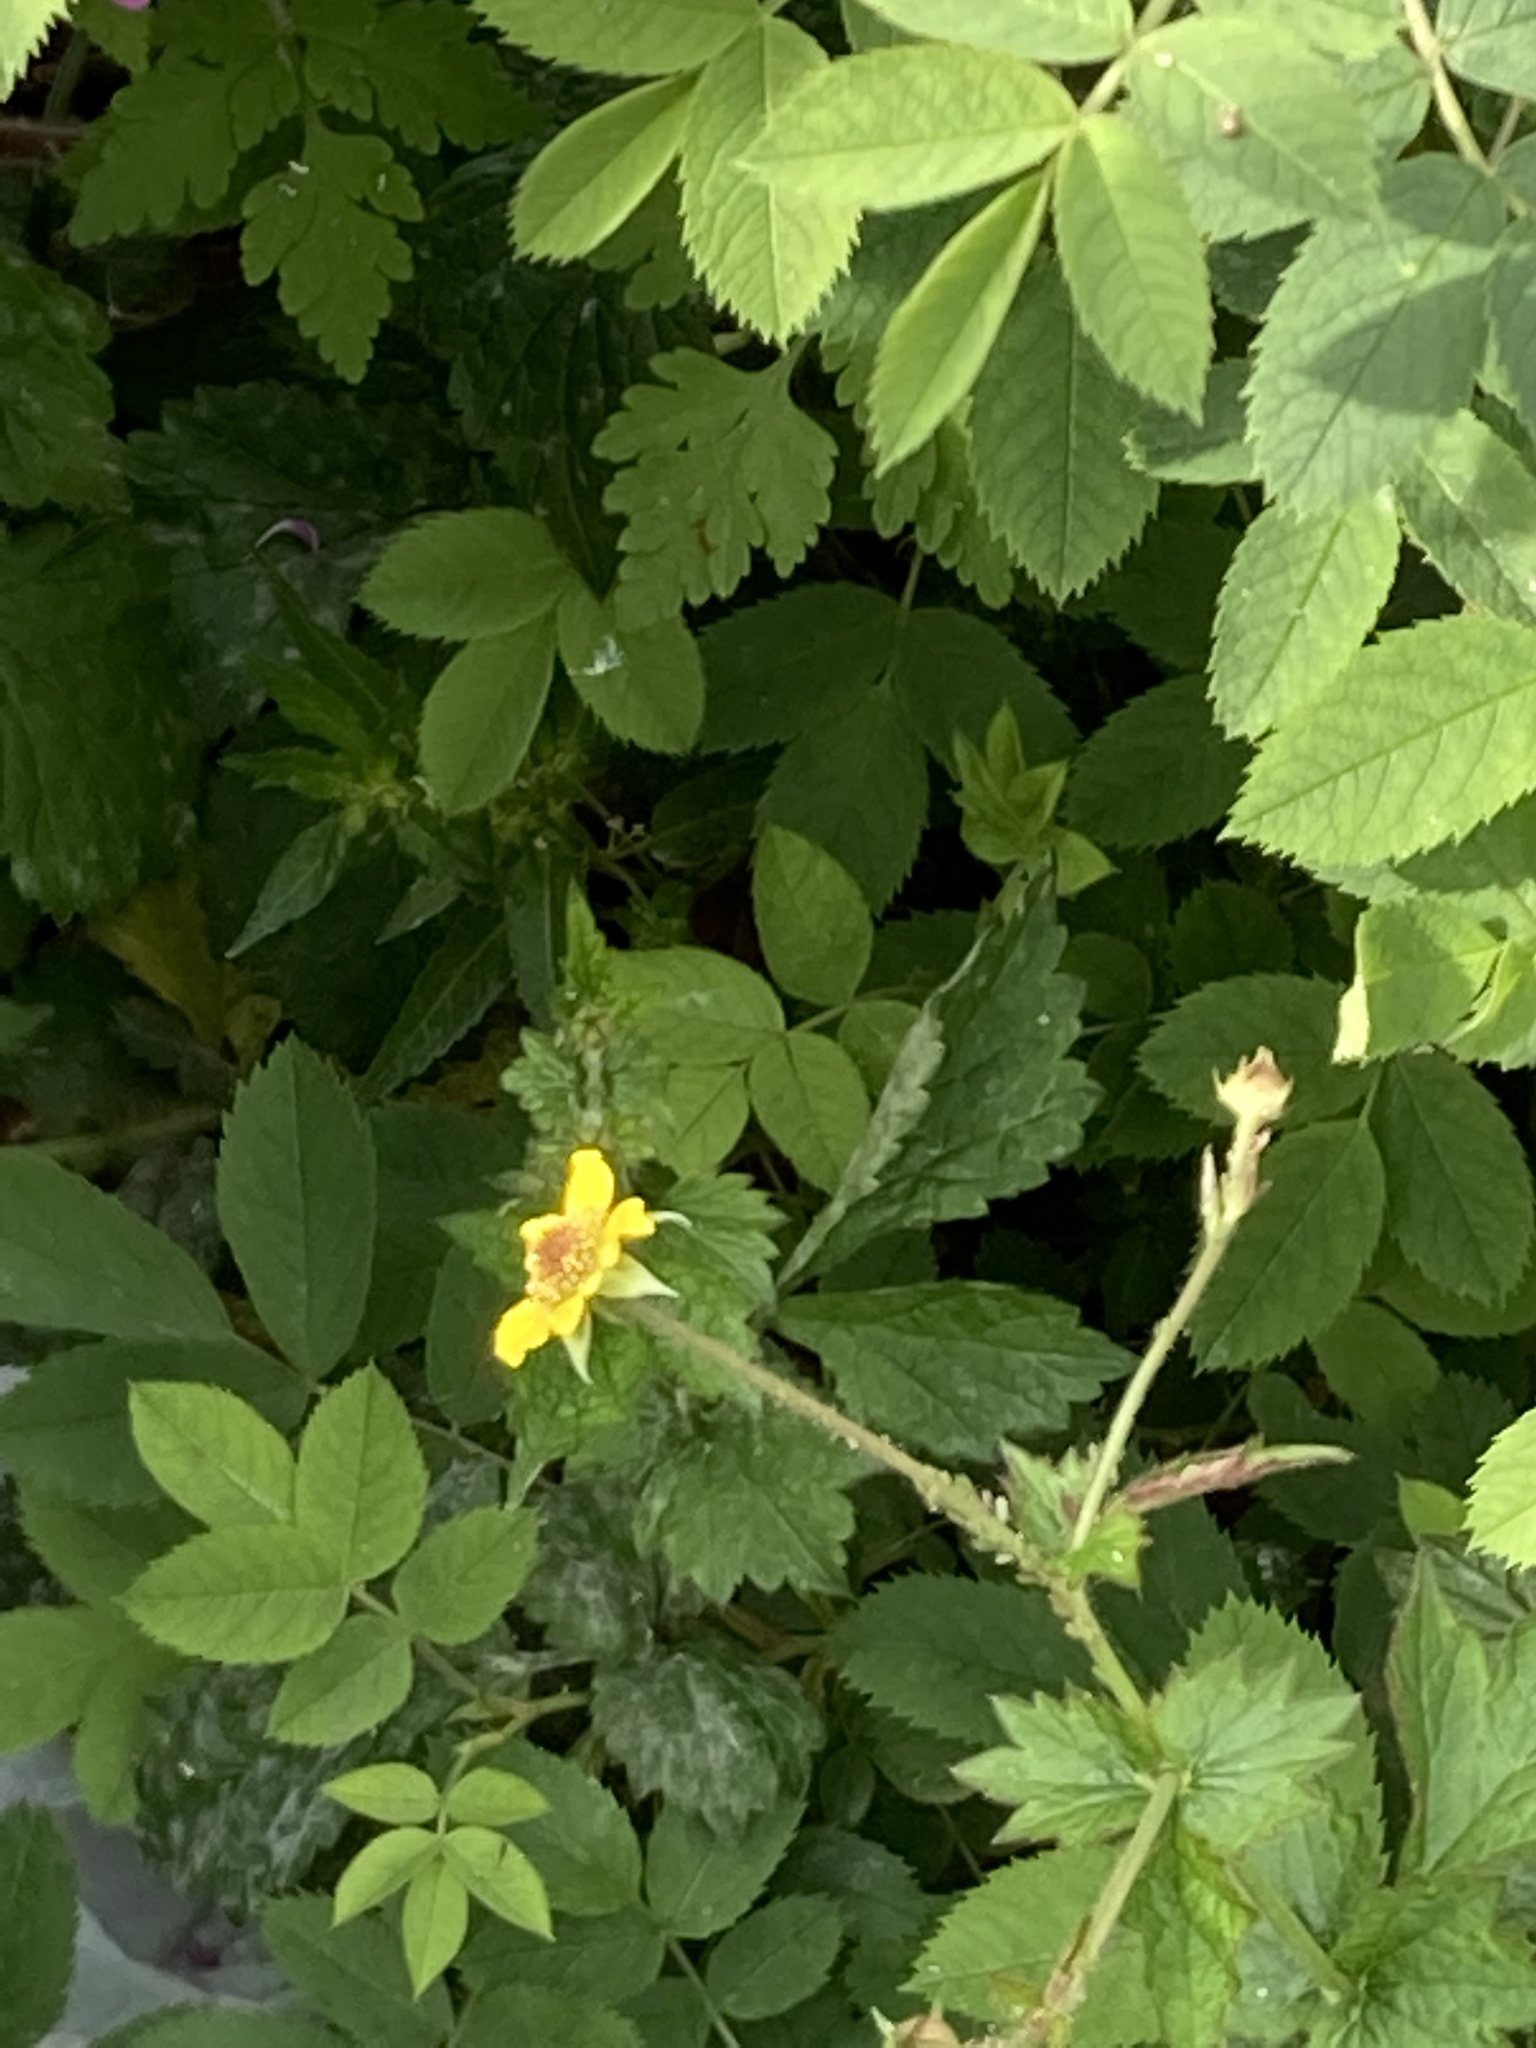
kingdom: Plantae
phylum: Tracheophyta
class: Magnoliopsida
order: Rosales
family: Rosaceae
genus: Geum
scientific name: Geum urbanum
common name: Wood avens
